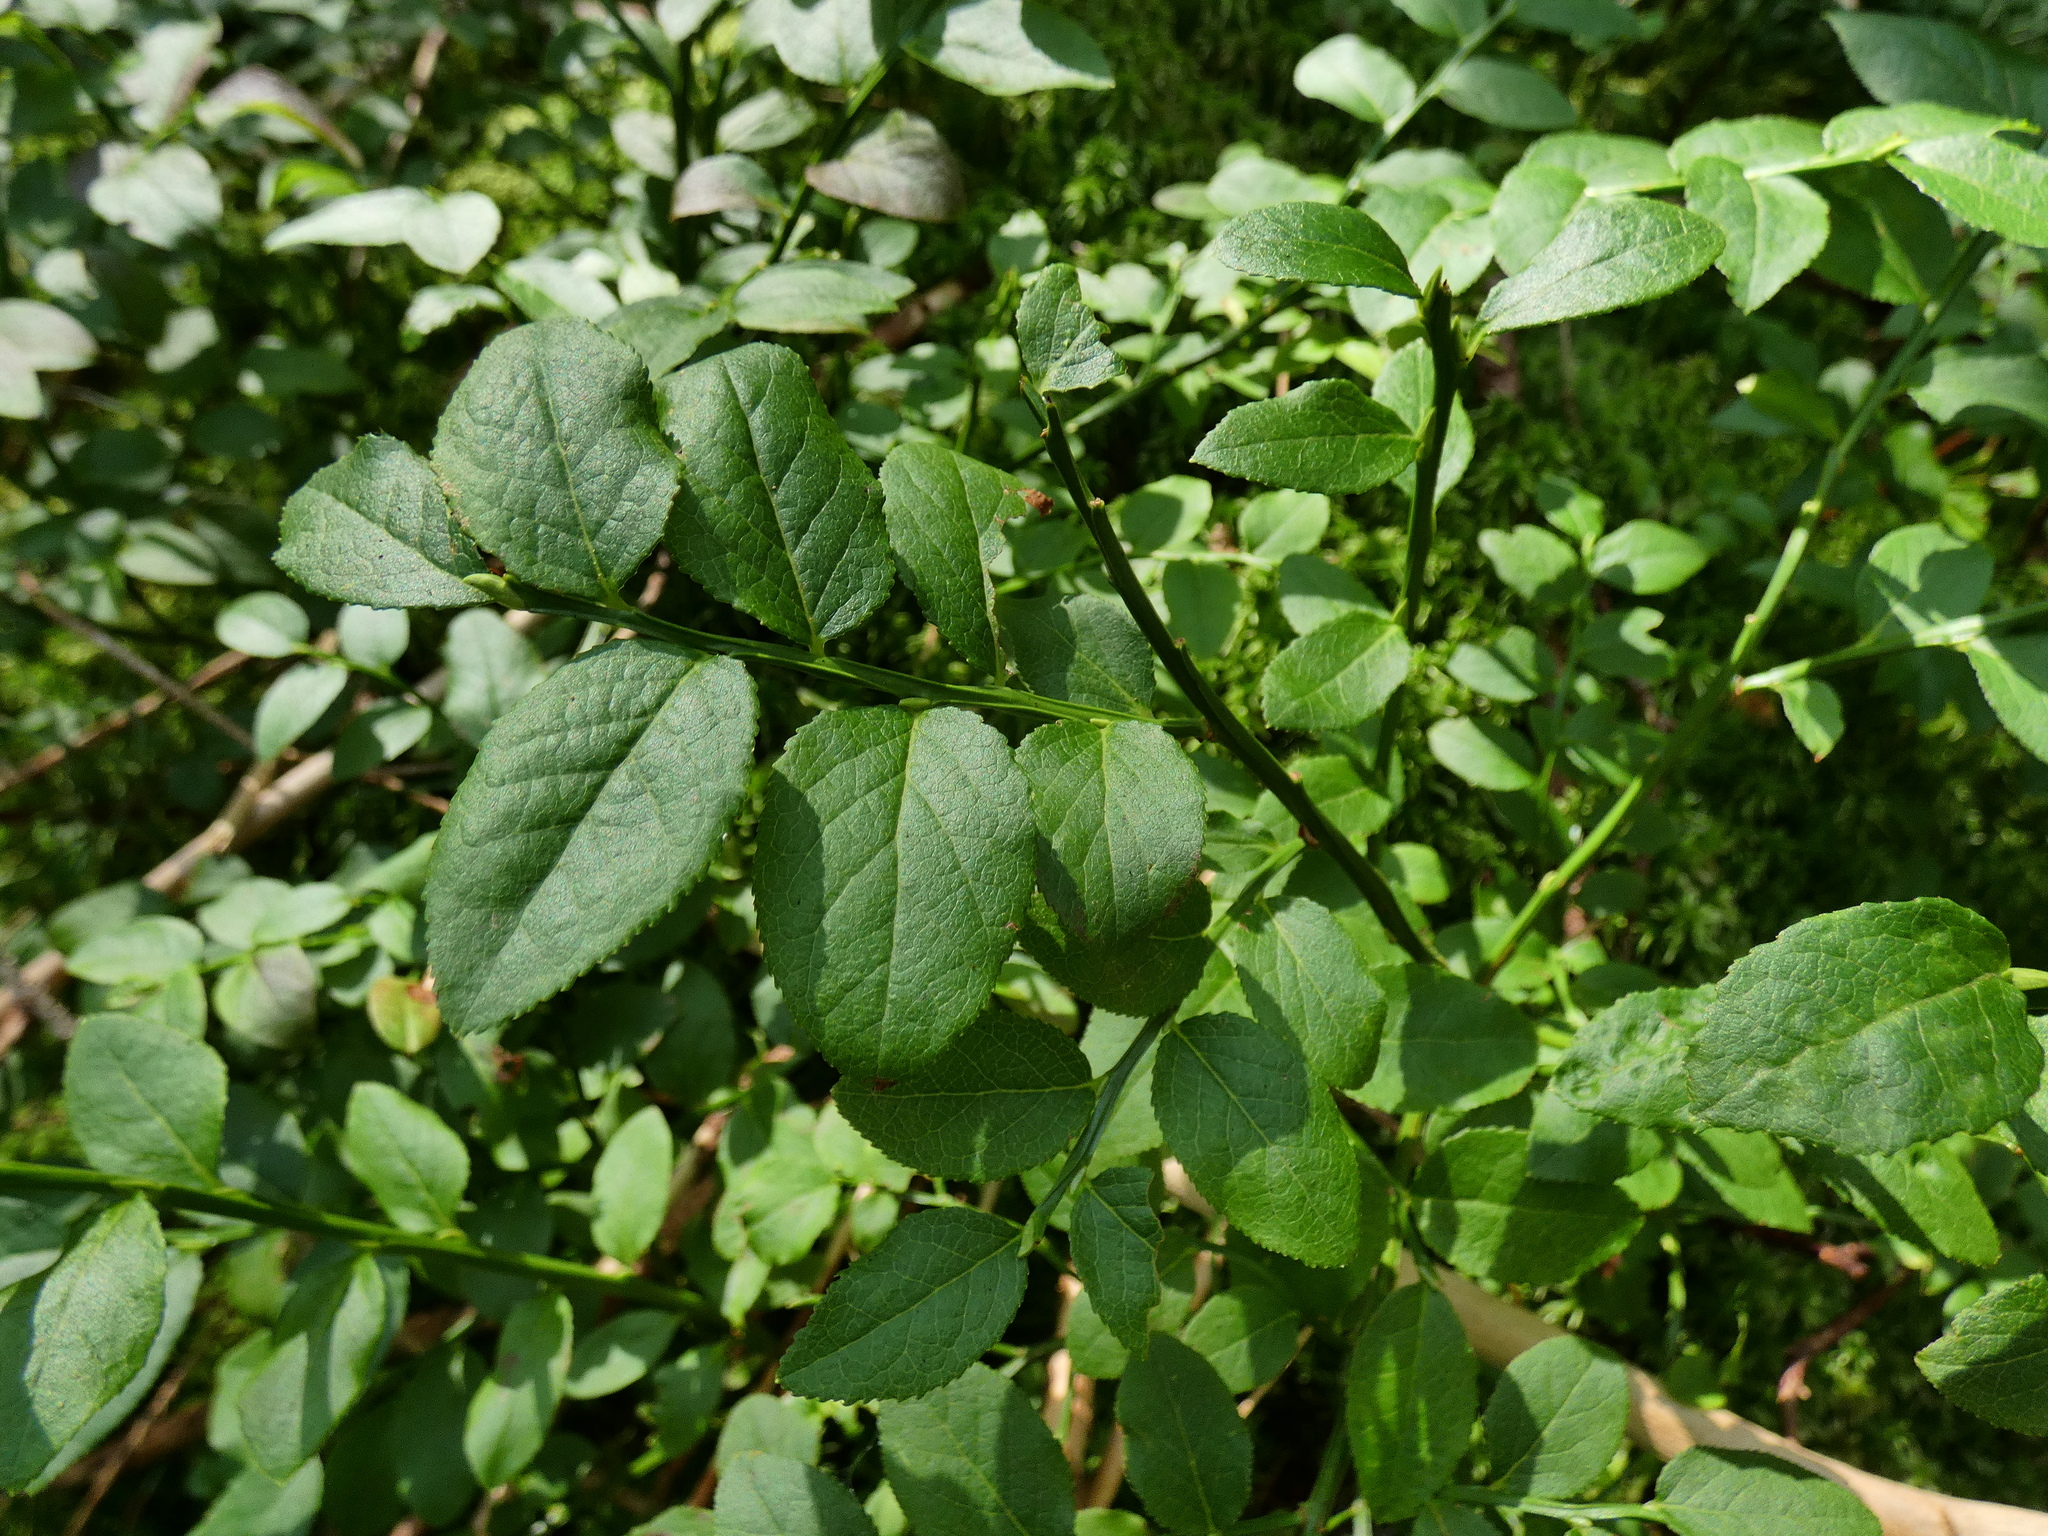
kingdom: Plantae
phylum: Tracheophyta
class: Magnoliopsida
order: Ericales
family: Ericaceae
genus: Vaccinium
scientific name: Vaccinium myrtillus
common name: Bilberry
